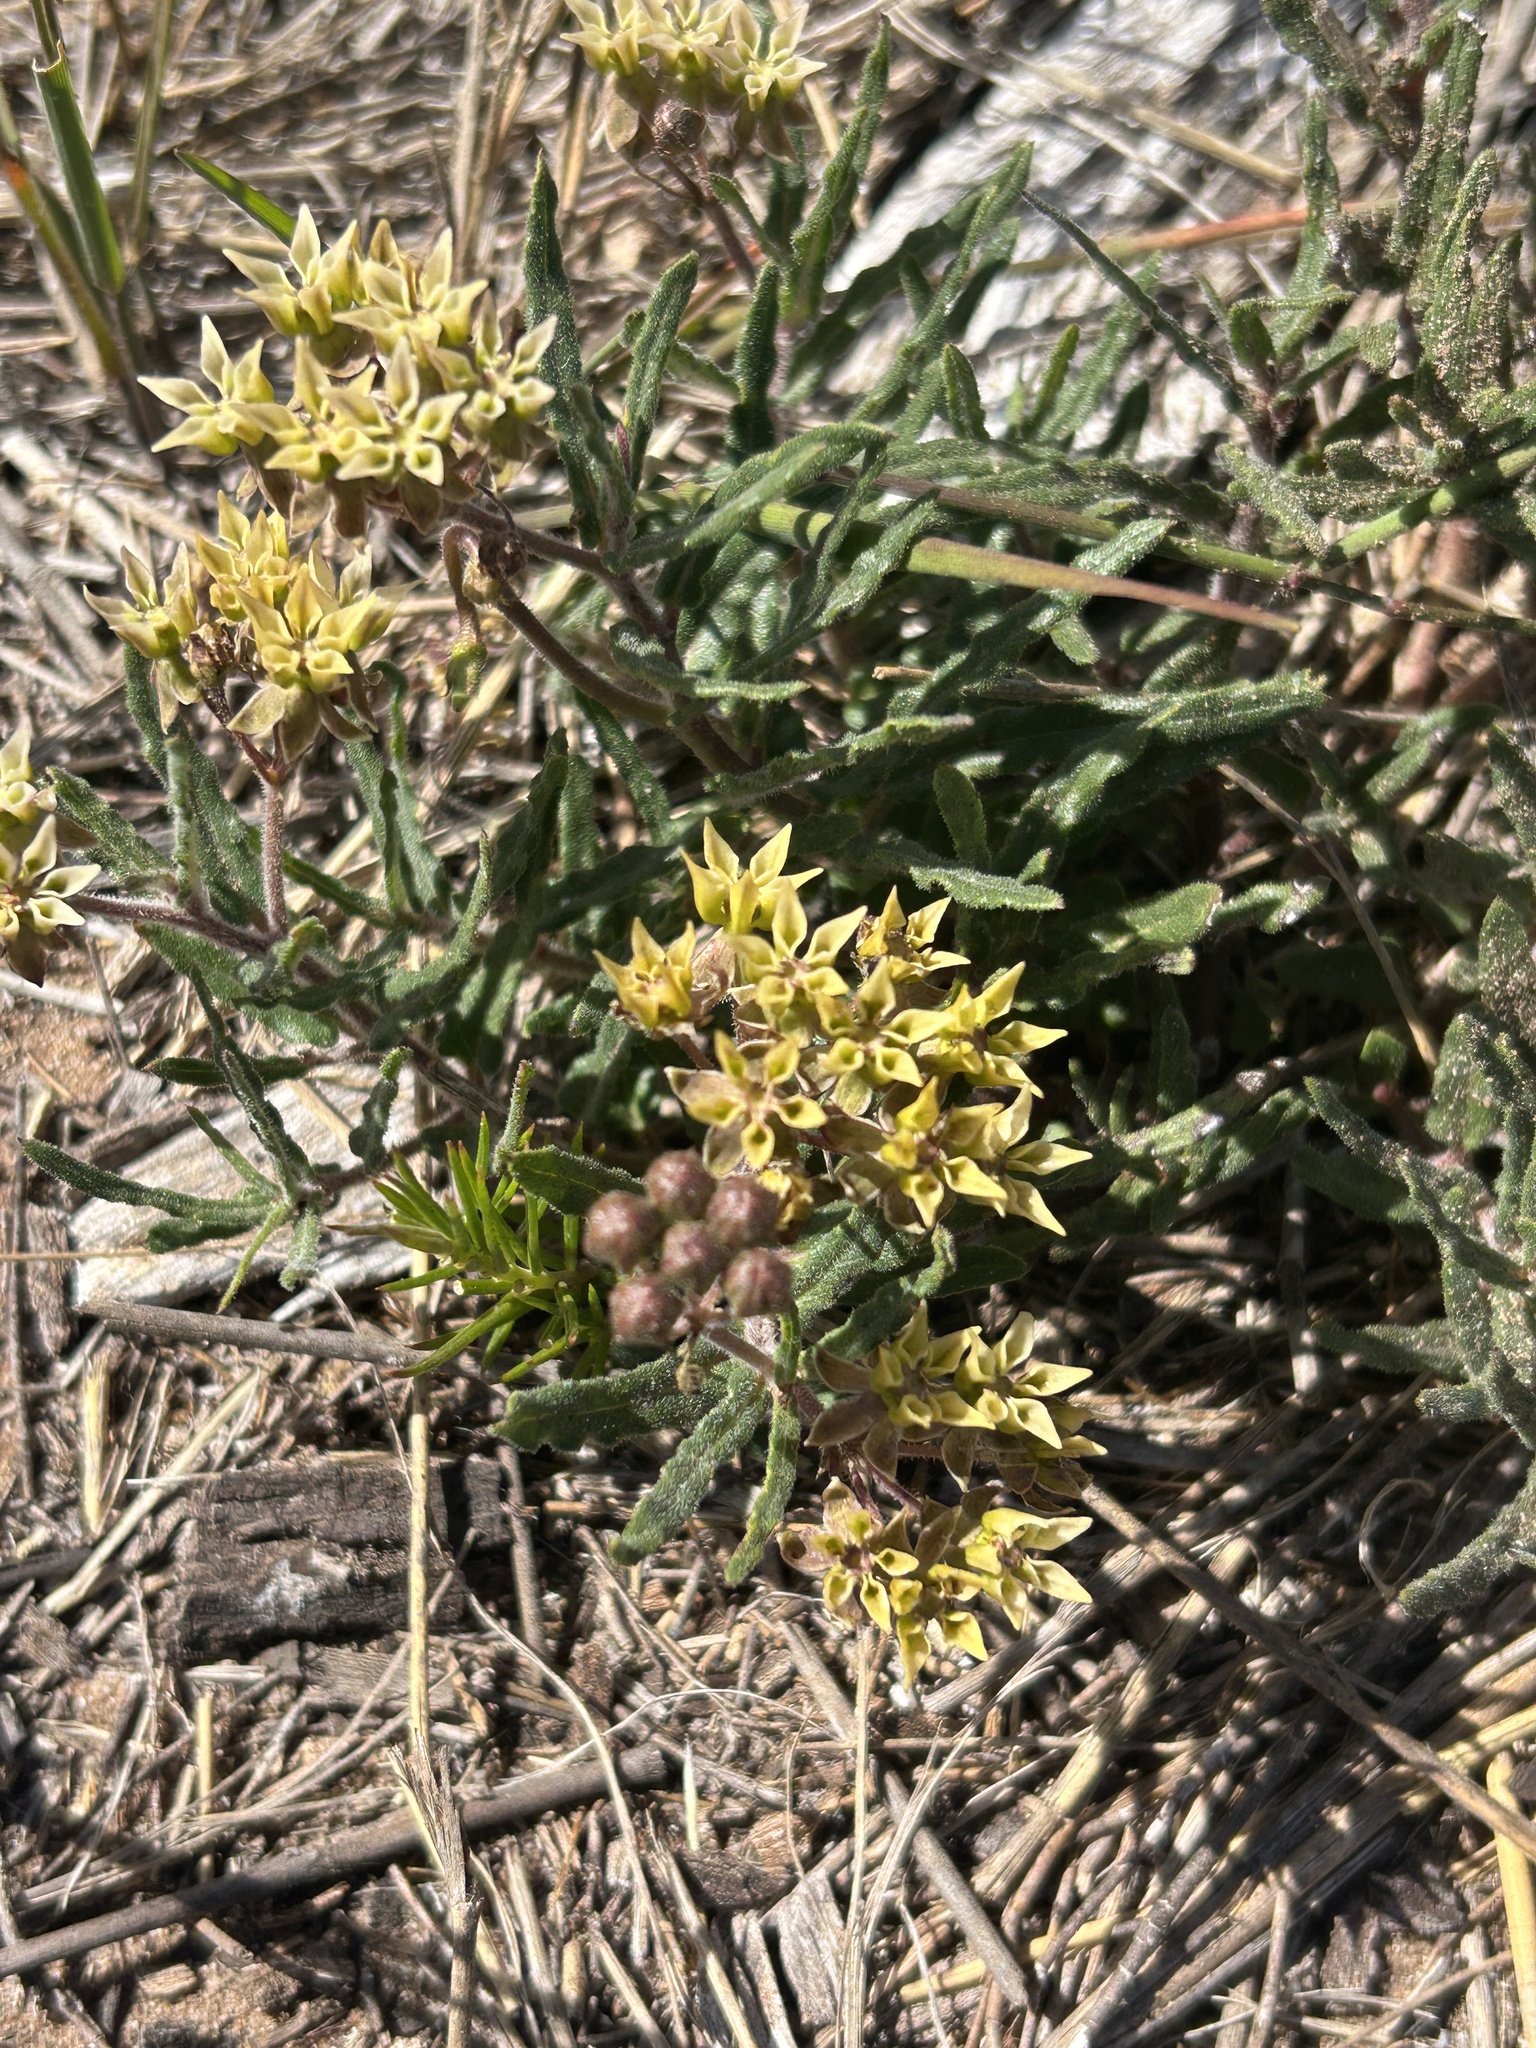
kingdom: Plantae
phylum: Tracheophyta
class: Magnoliopsida
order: Gentianales
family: Apocynaceae
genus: Asclepias
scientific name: Asclepias crispa
